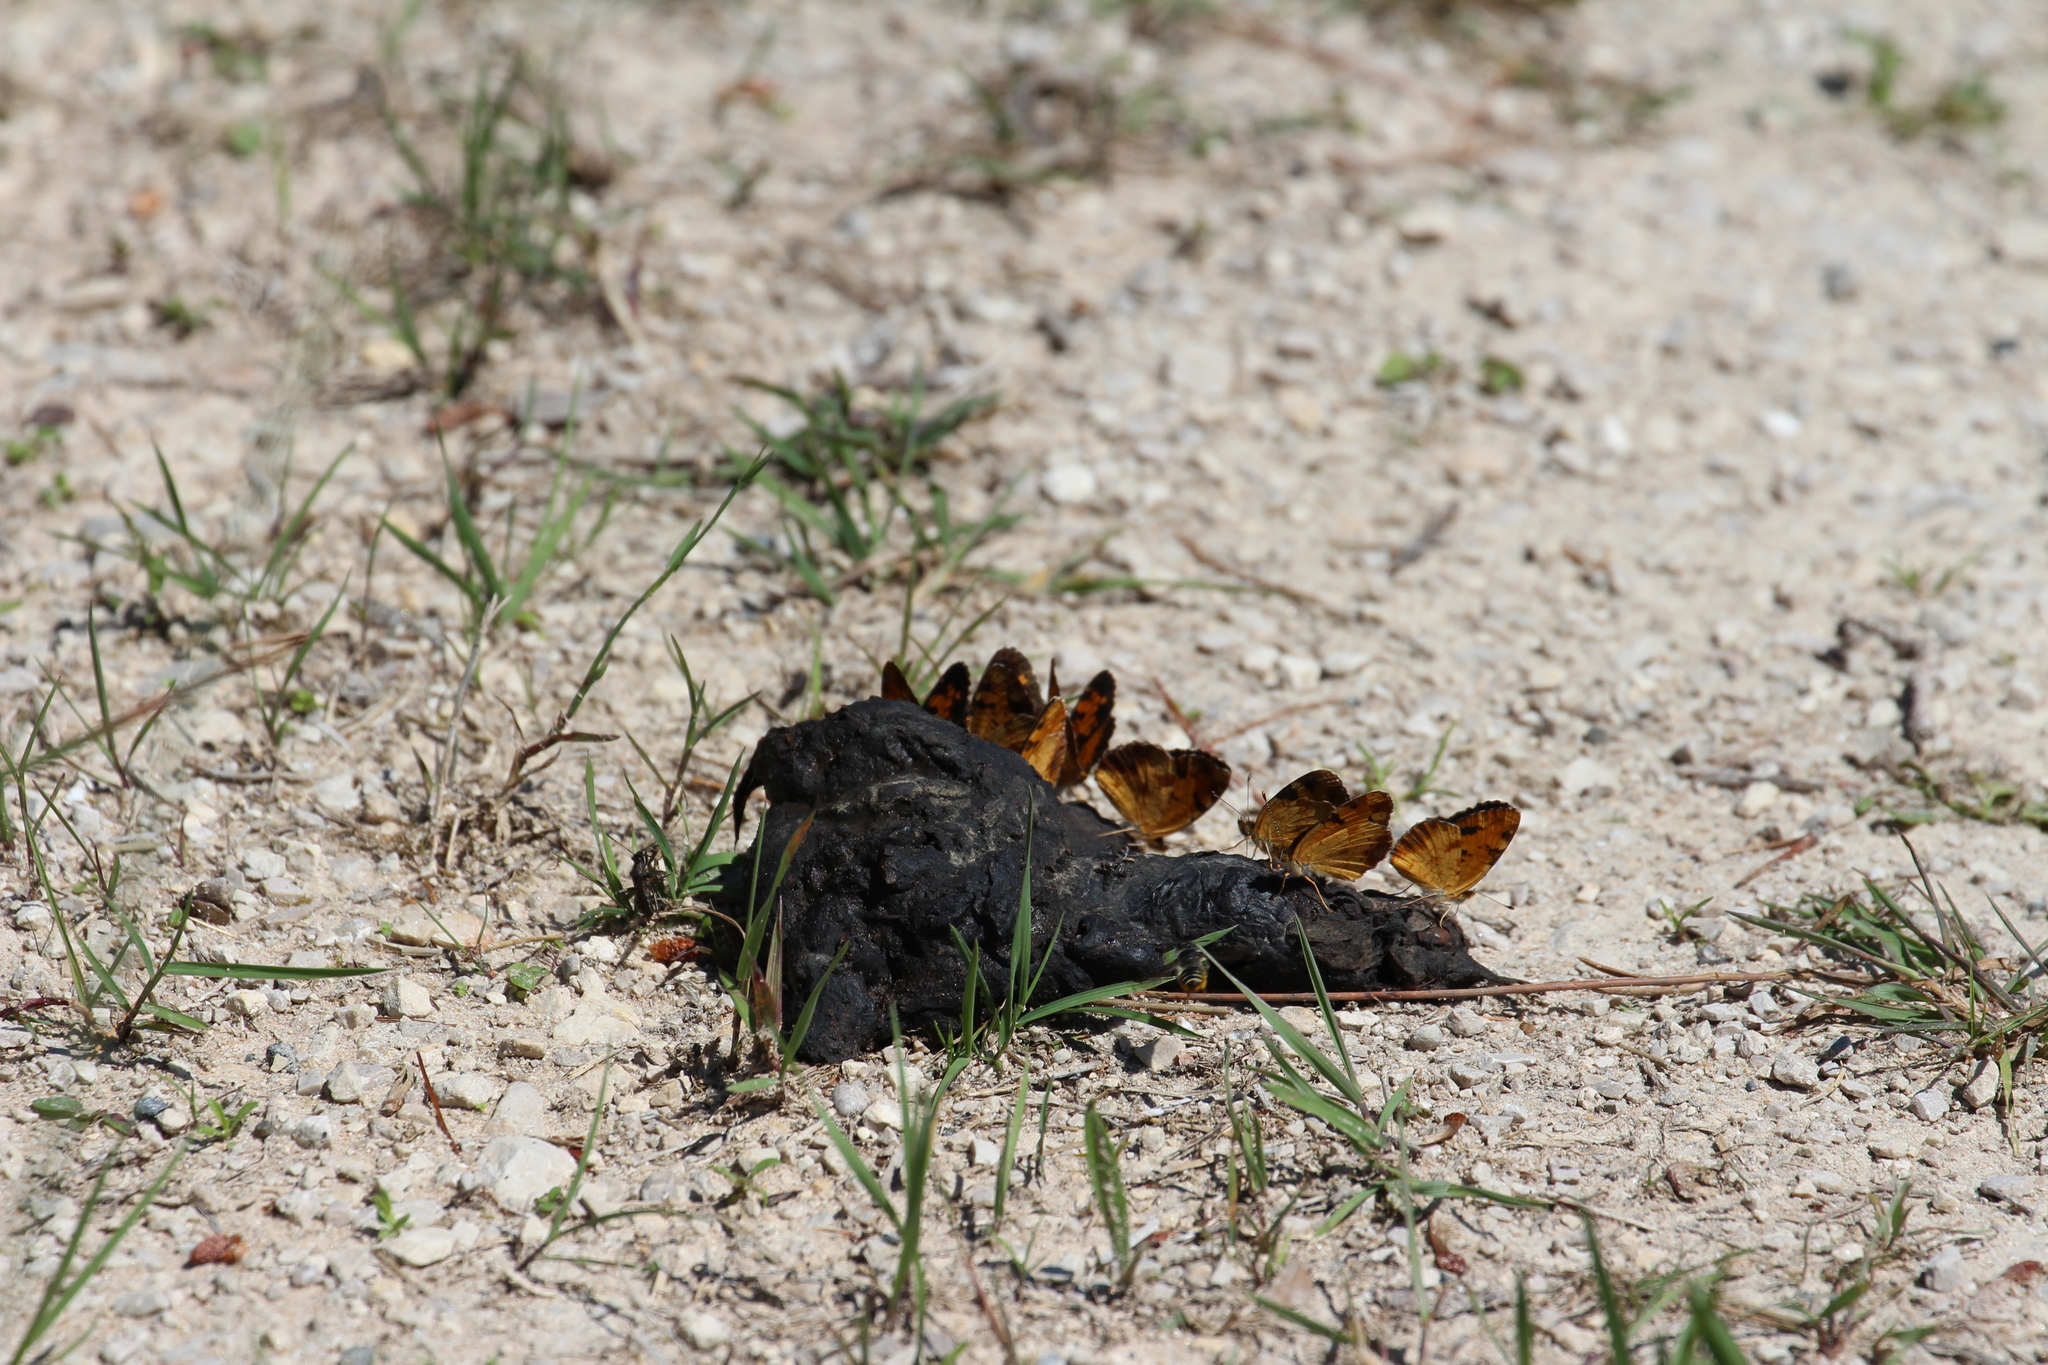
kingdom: Animalia
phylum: Chordata
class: Mammalia
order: Carnivora
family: Ursidae
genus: Ursus
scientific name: Ursus americanus
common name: American black bear
